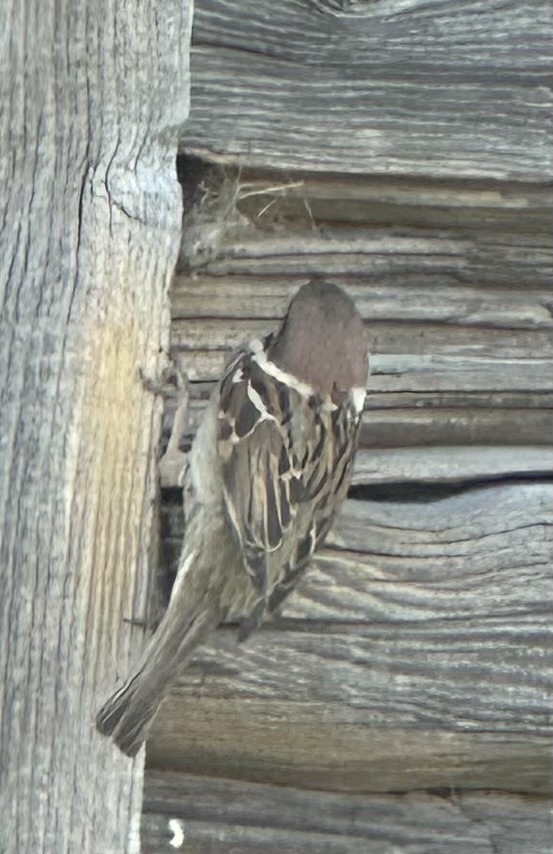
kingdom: Animalia
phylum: Chordata
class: Aves
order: Passeriformes
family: Passeridae
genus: Passer
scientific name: Passer montanus
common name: Eurasian tree sparrow
